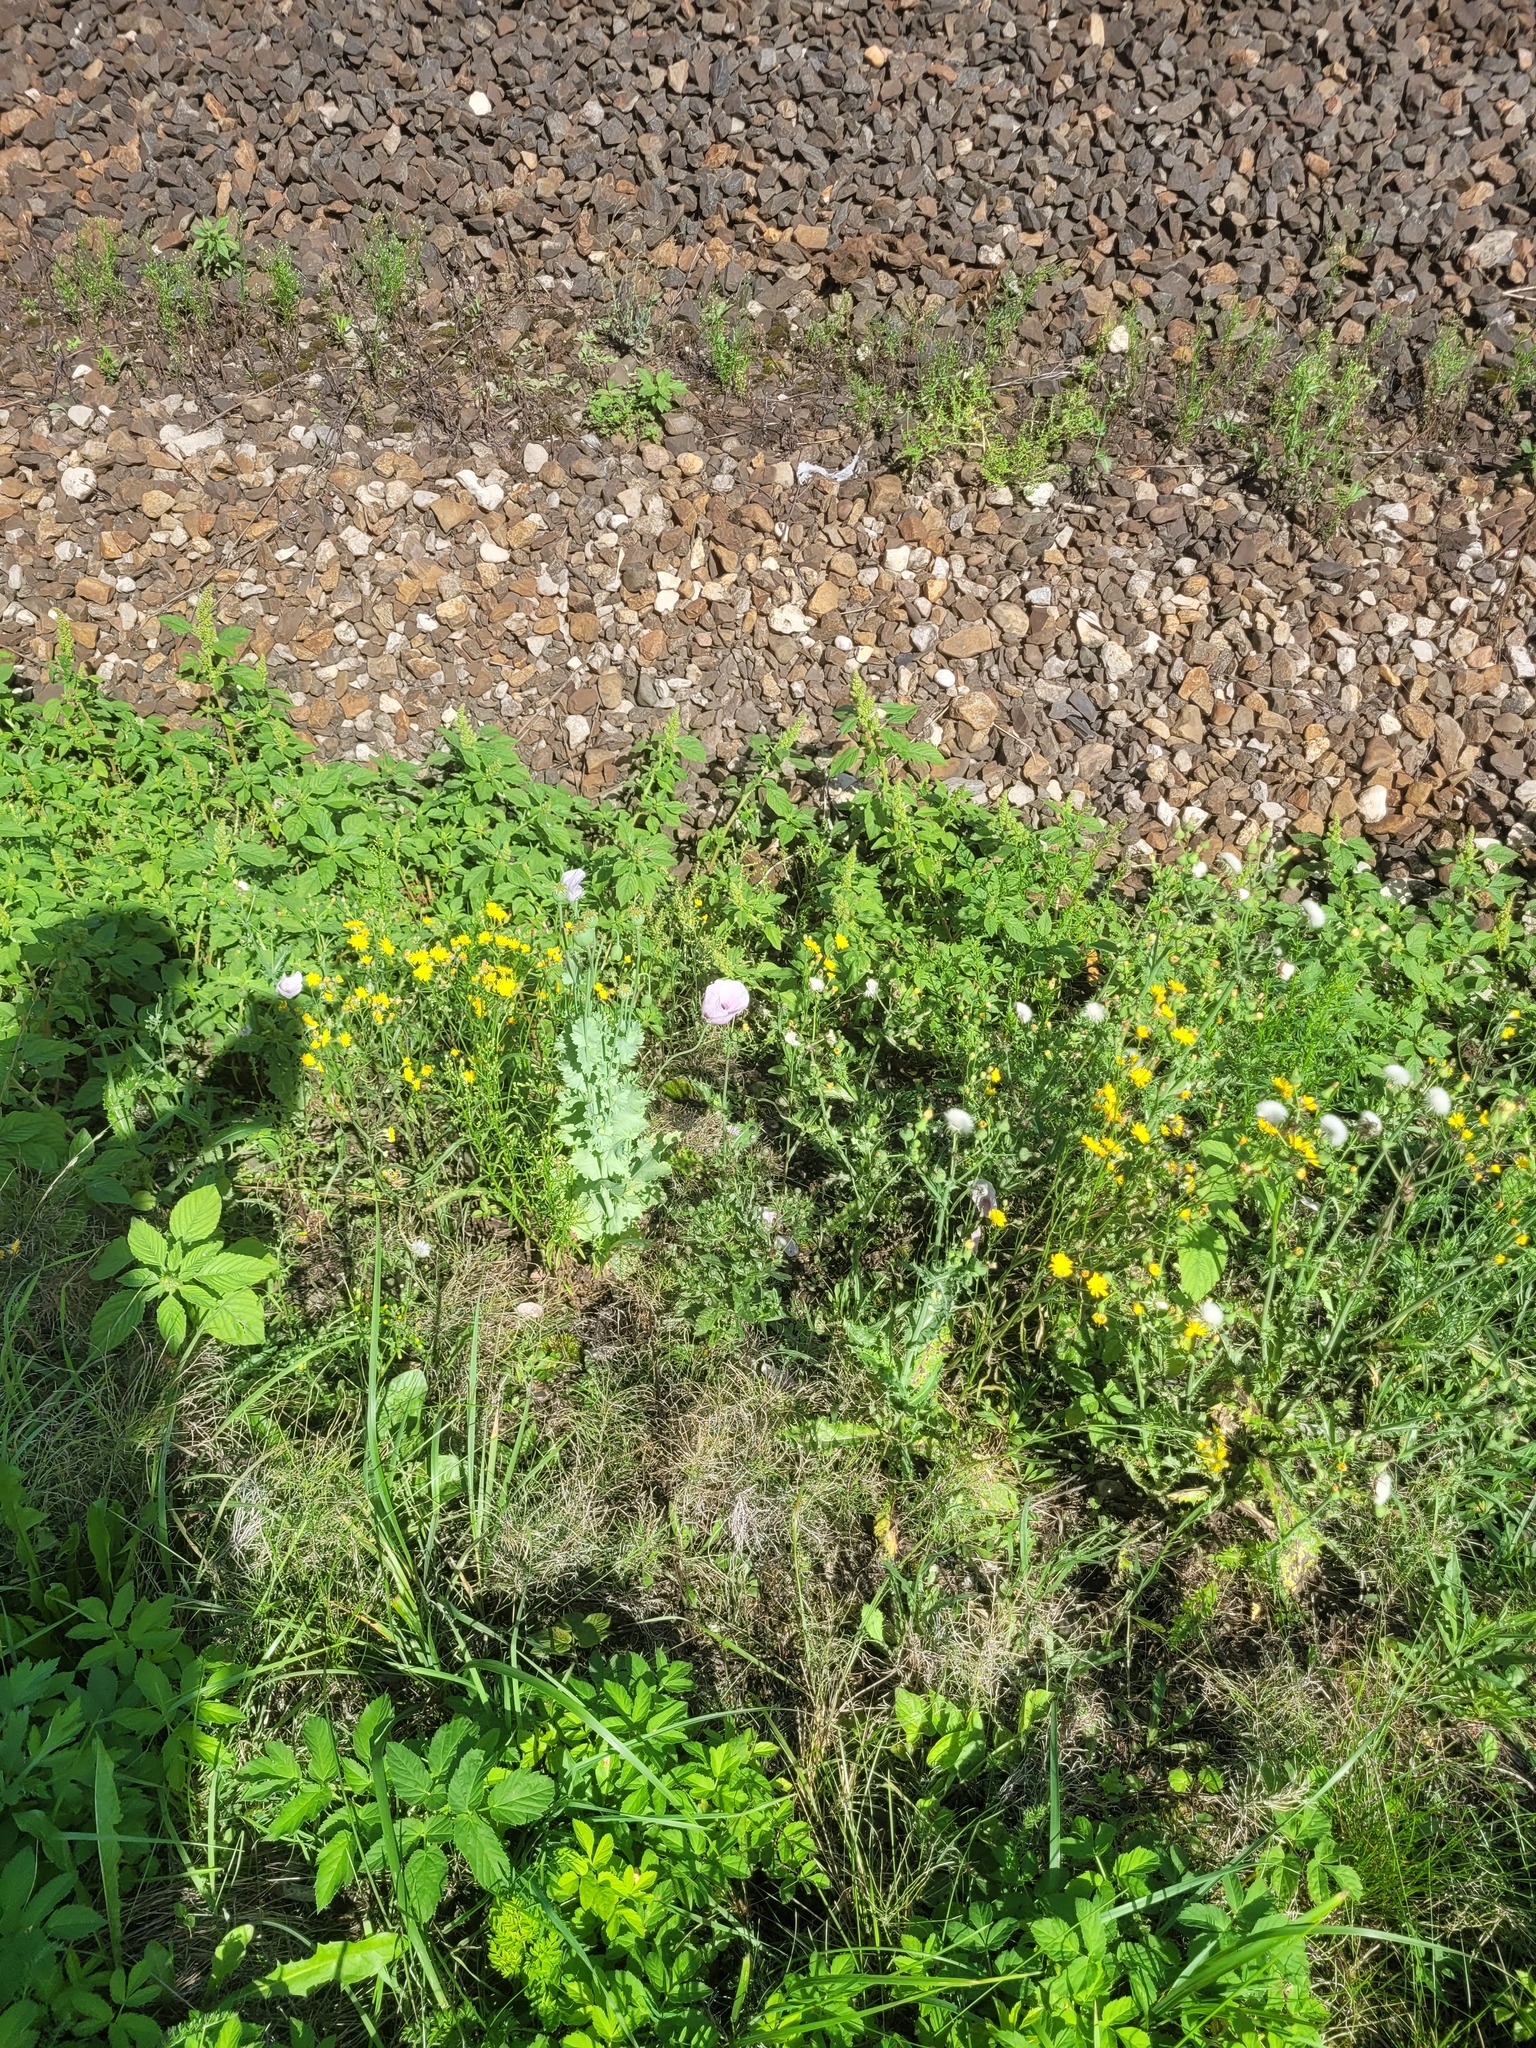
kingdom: Plantae
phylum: Tracheophyta
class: Magnoliopsida
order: Ranunculales
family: Papaveraceae
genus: Papaver
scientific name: Papaver somniferum
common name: Opium poppy
